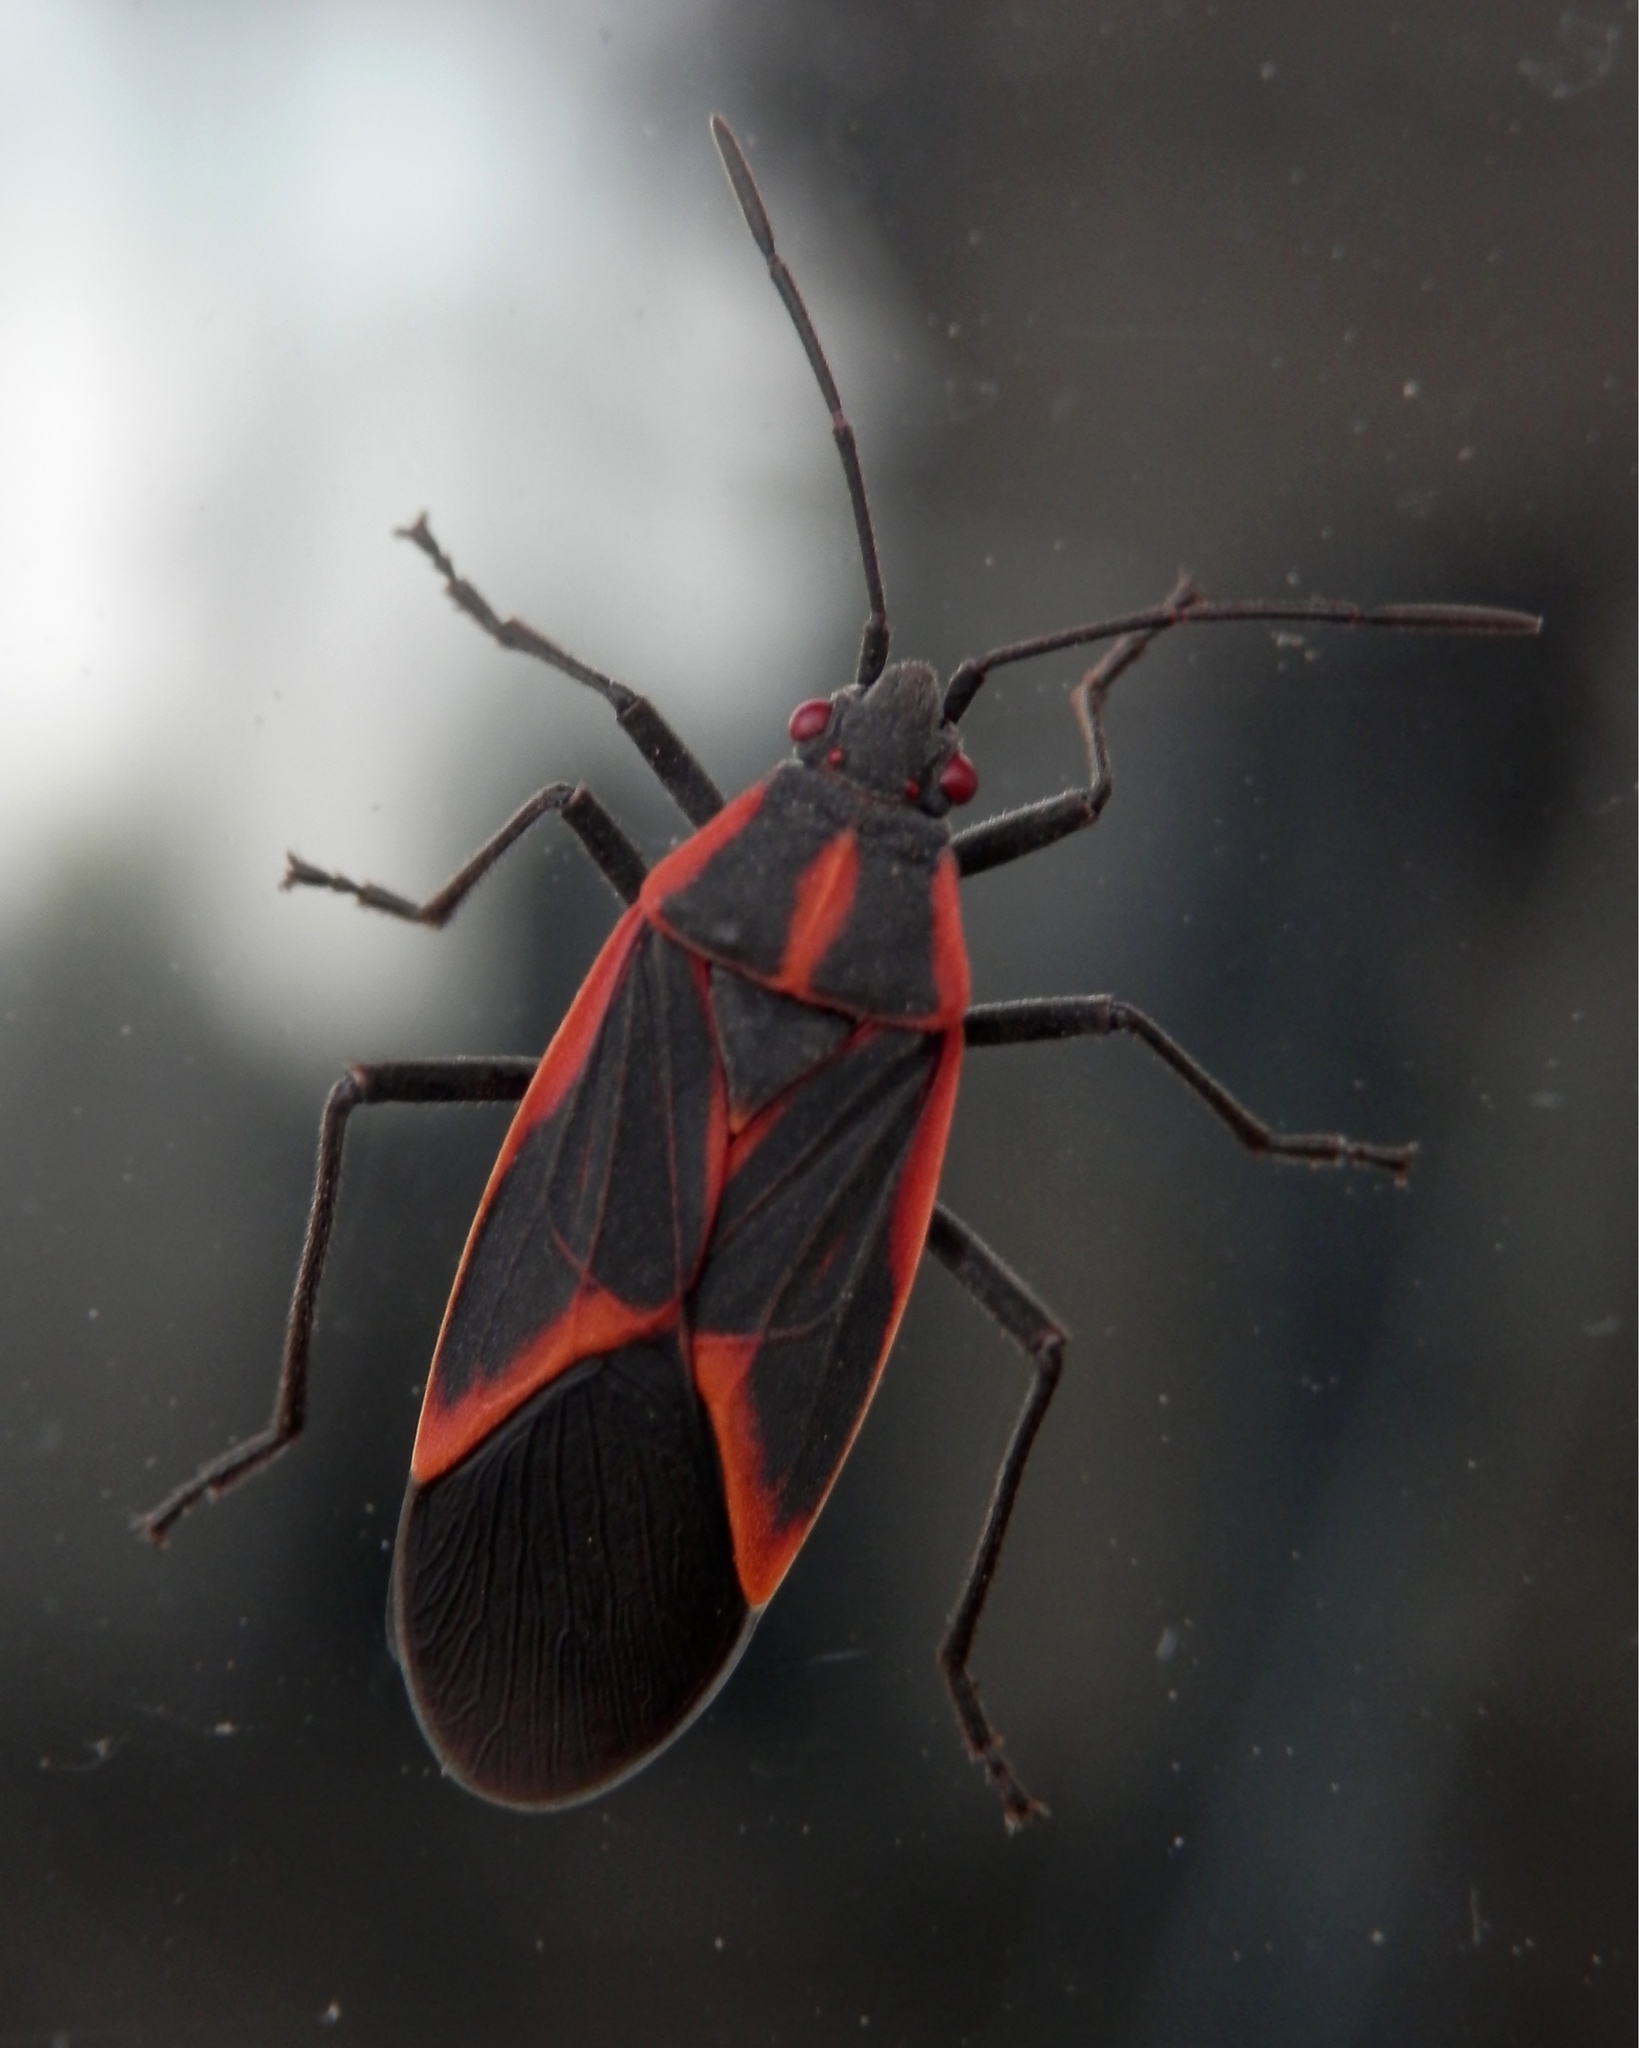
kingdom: Animalia
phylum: Arthropoda
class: Insecta
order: Hemiptera
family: Rhopalidae
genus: Boisea
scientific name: Boisea trivittata
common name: Boxelder bug
